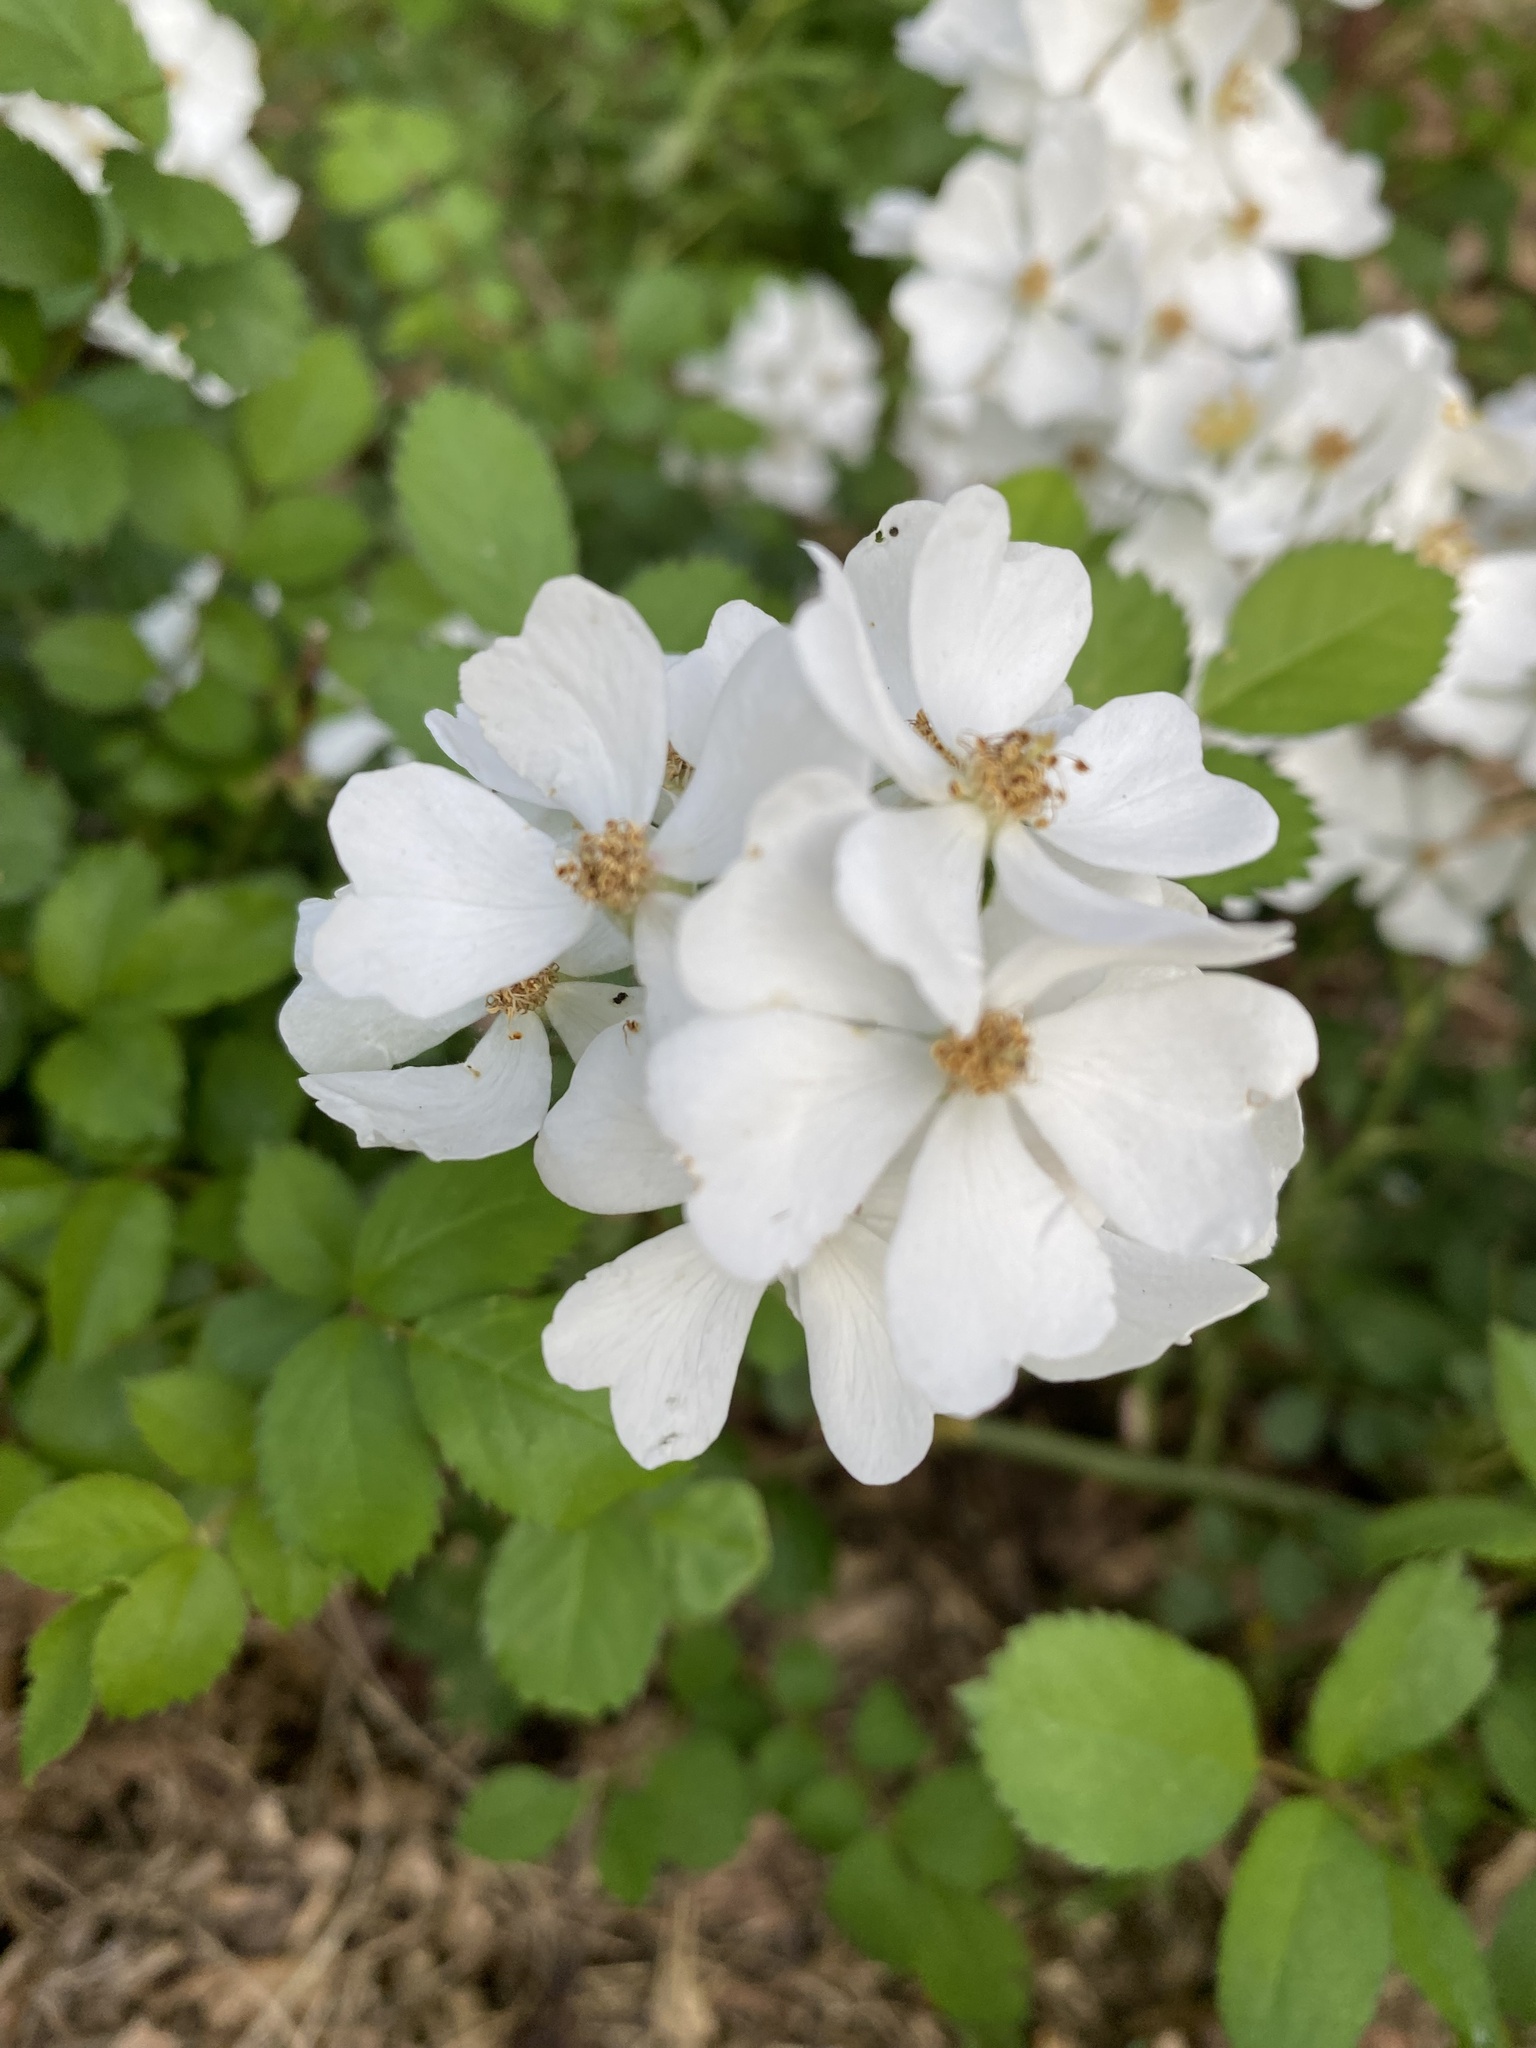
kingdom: Plantae
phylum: Tracheophyta
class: Magnoliopsida
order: Rosales
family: Rosaceae
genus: Rosa
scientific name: Rosa multiflora
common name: Multiflora rose
